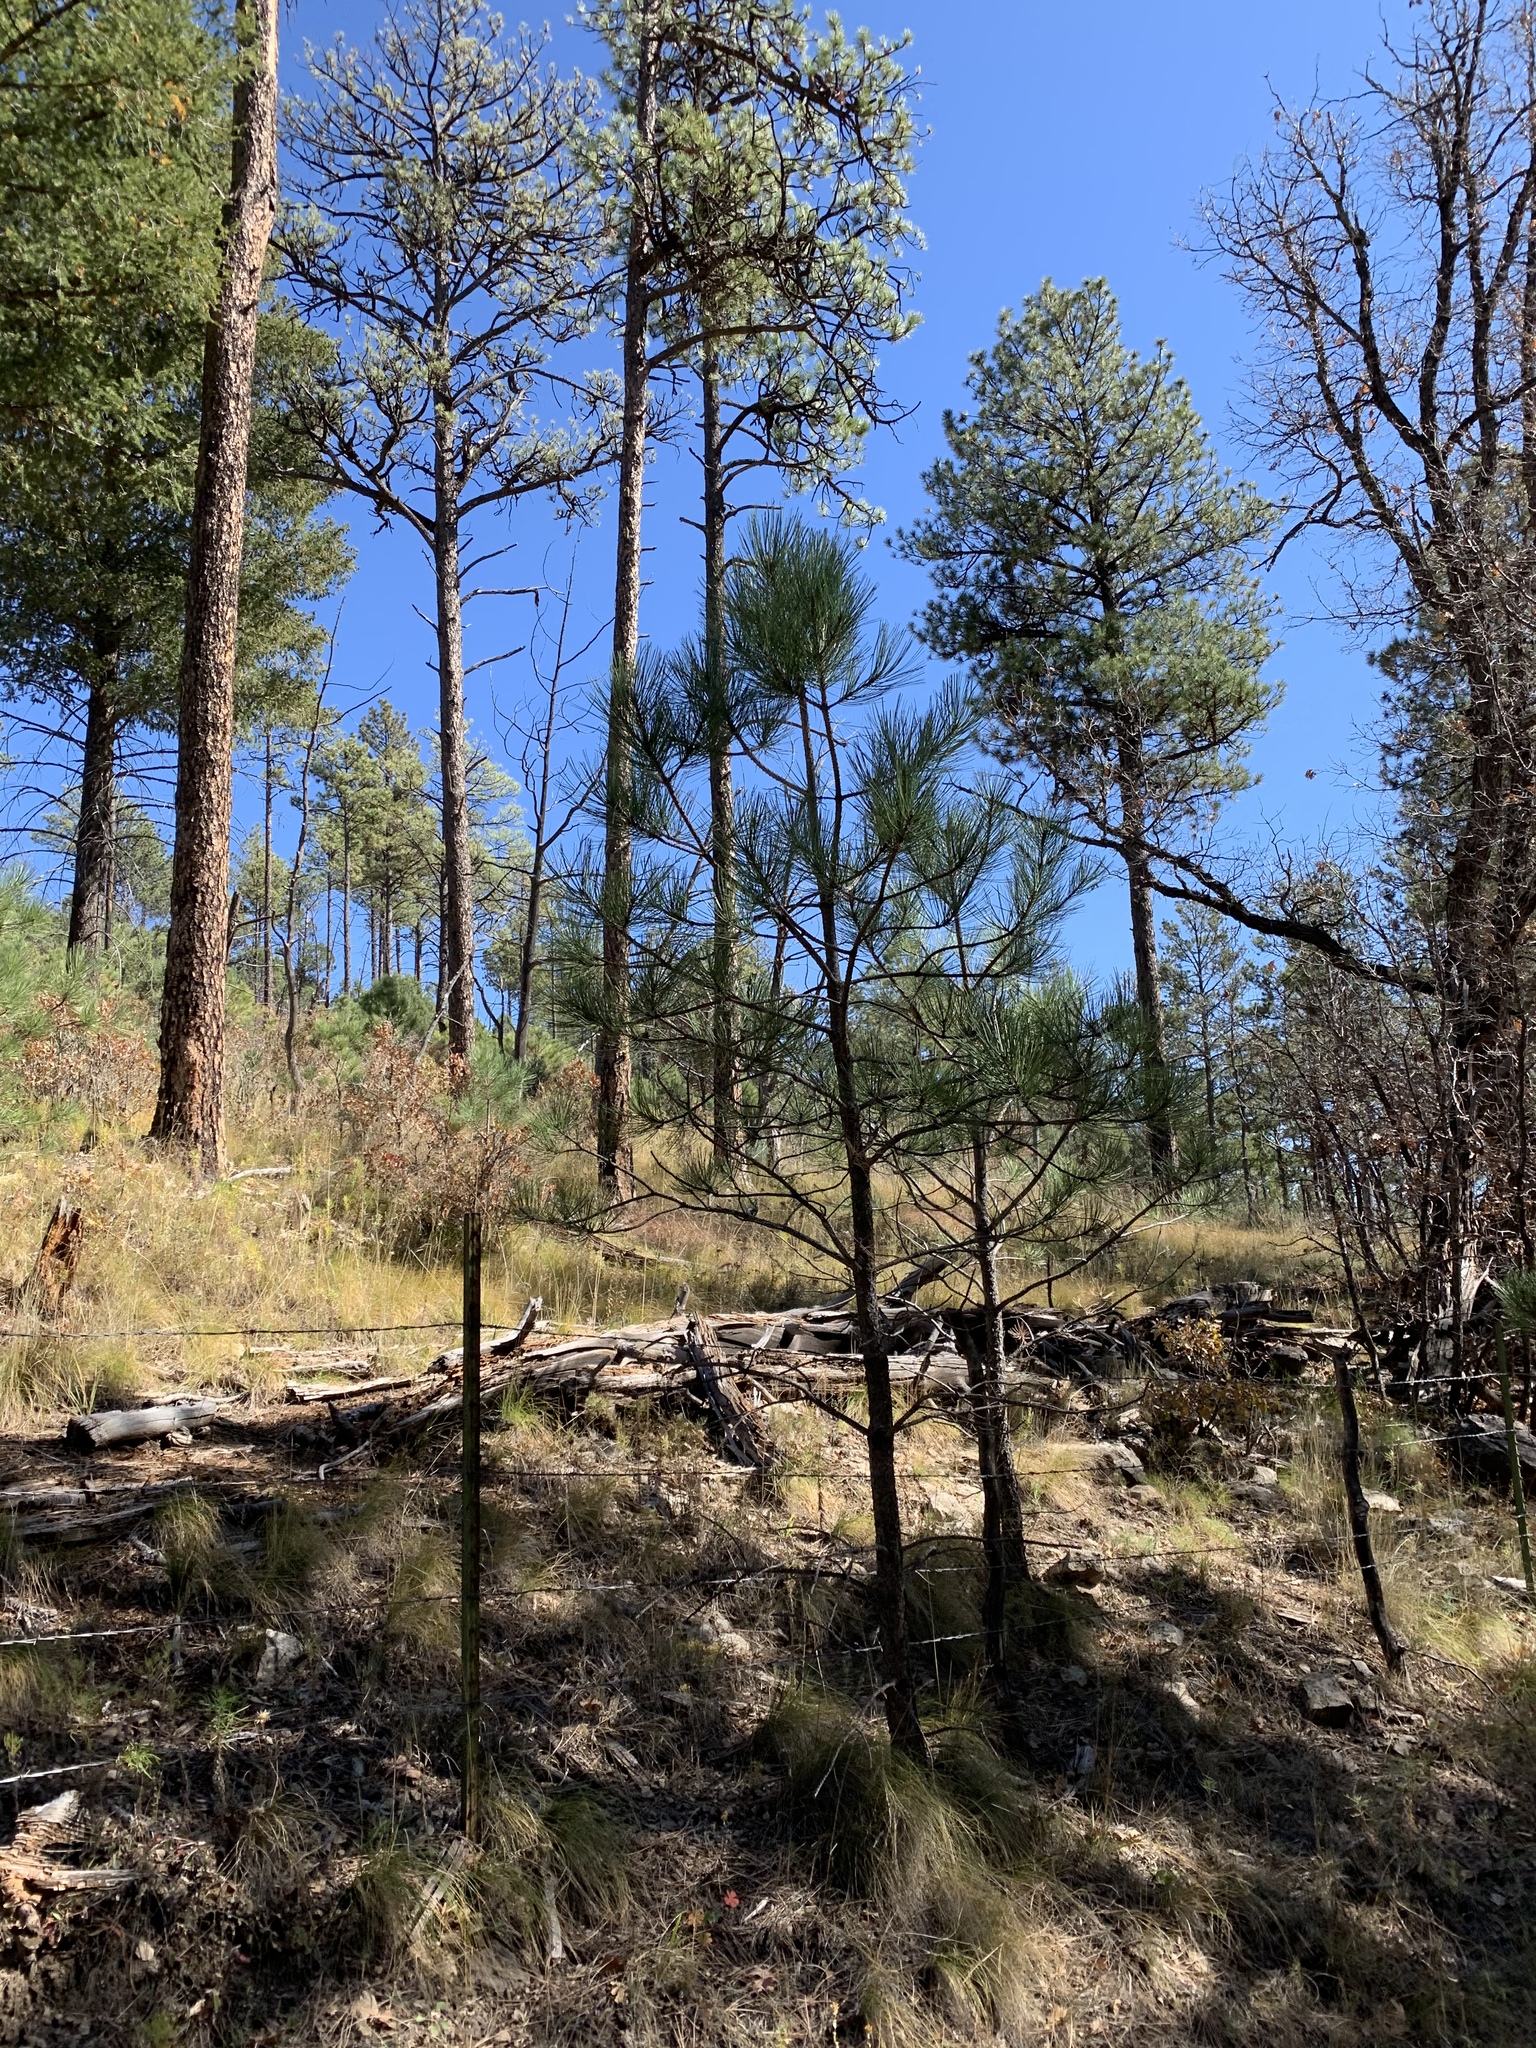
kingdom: Plantae
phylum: Tracheophyta
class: Pinopsida
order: Pinales
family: Pinaceae
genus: Pinus
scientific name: Pinus ponderosa
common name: Western yellow-pine
